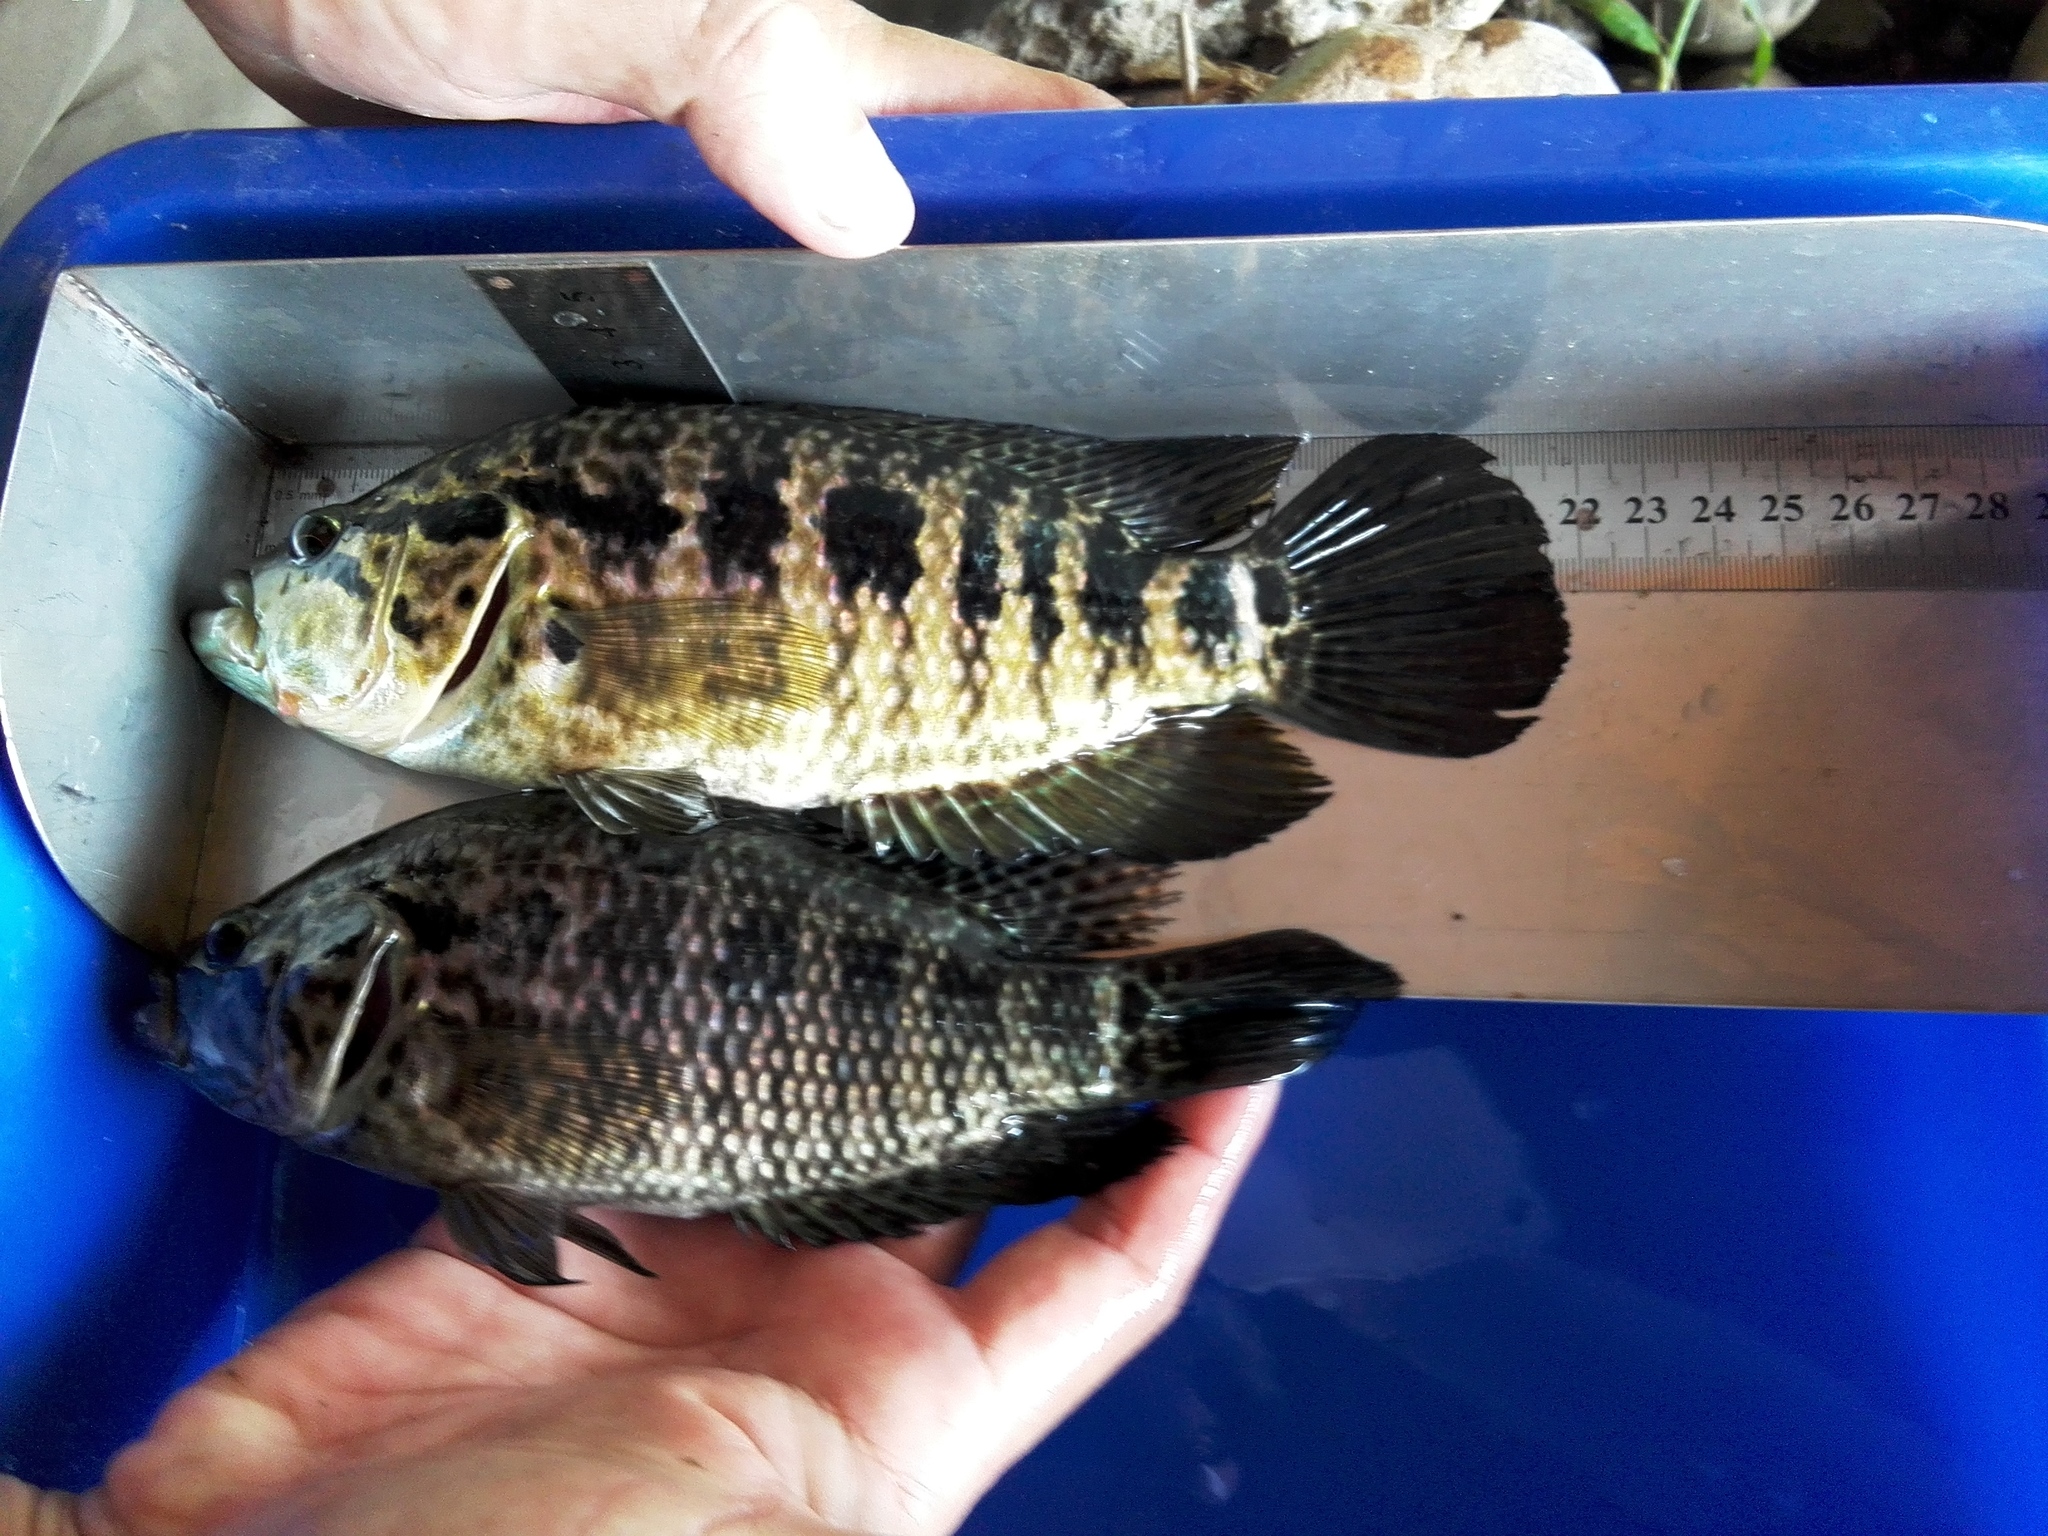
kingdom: Animalia
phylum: Chordata
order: Perciformes
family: Cichlidae
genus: Parachromis
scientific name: Parachromis managuensis
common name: Jaguar guapote
